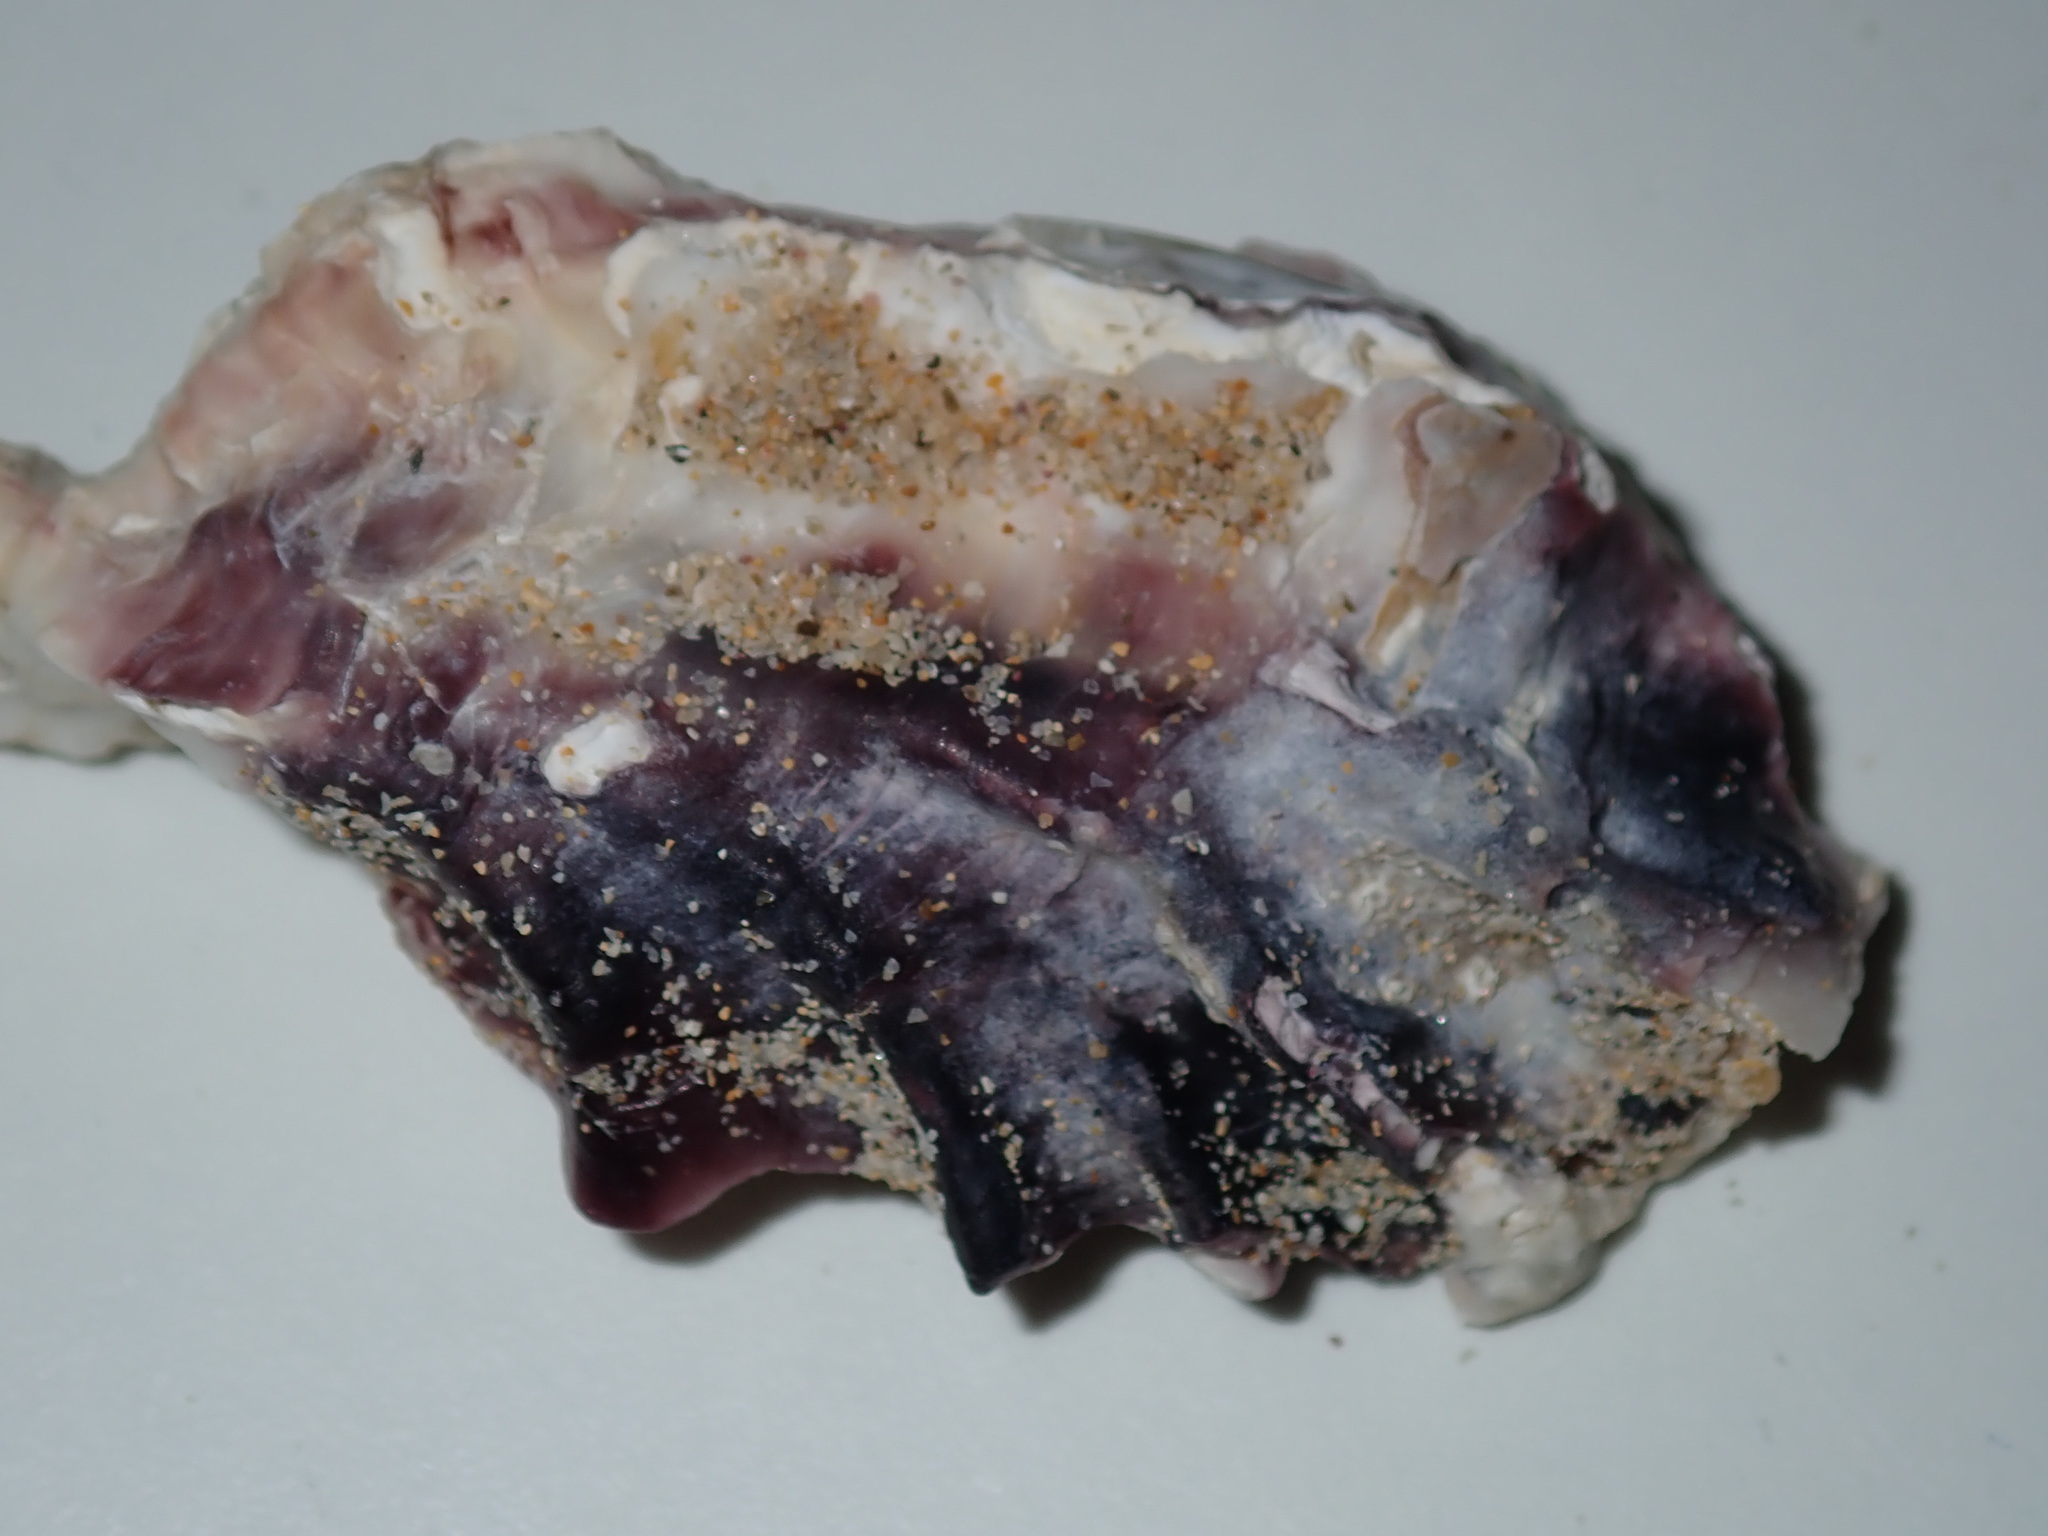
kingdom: Animalia
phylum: Mollusca
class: Bivalvia
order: Ostreida
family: Ostreidae
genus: Saccostrea
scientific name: Saccostrea glomerata
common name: Sydney cupped oyster
